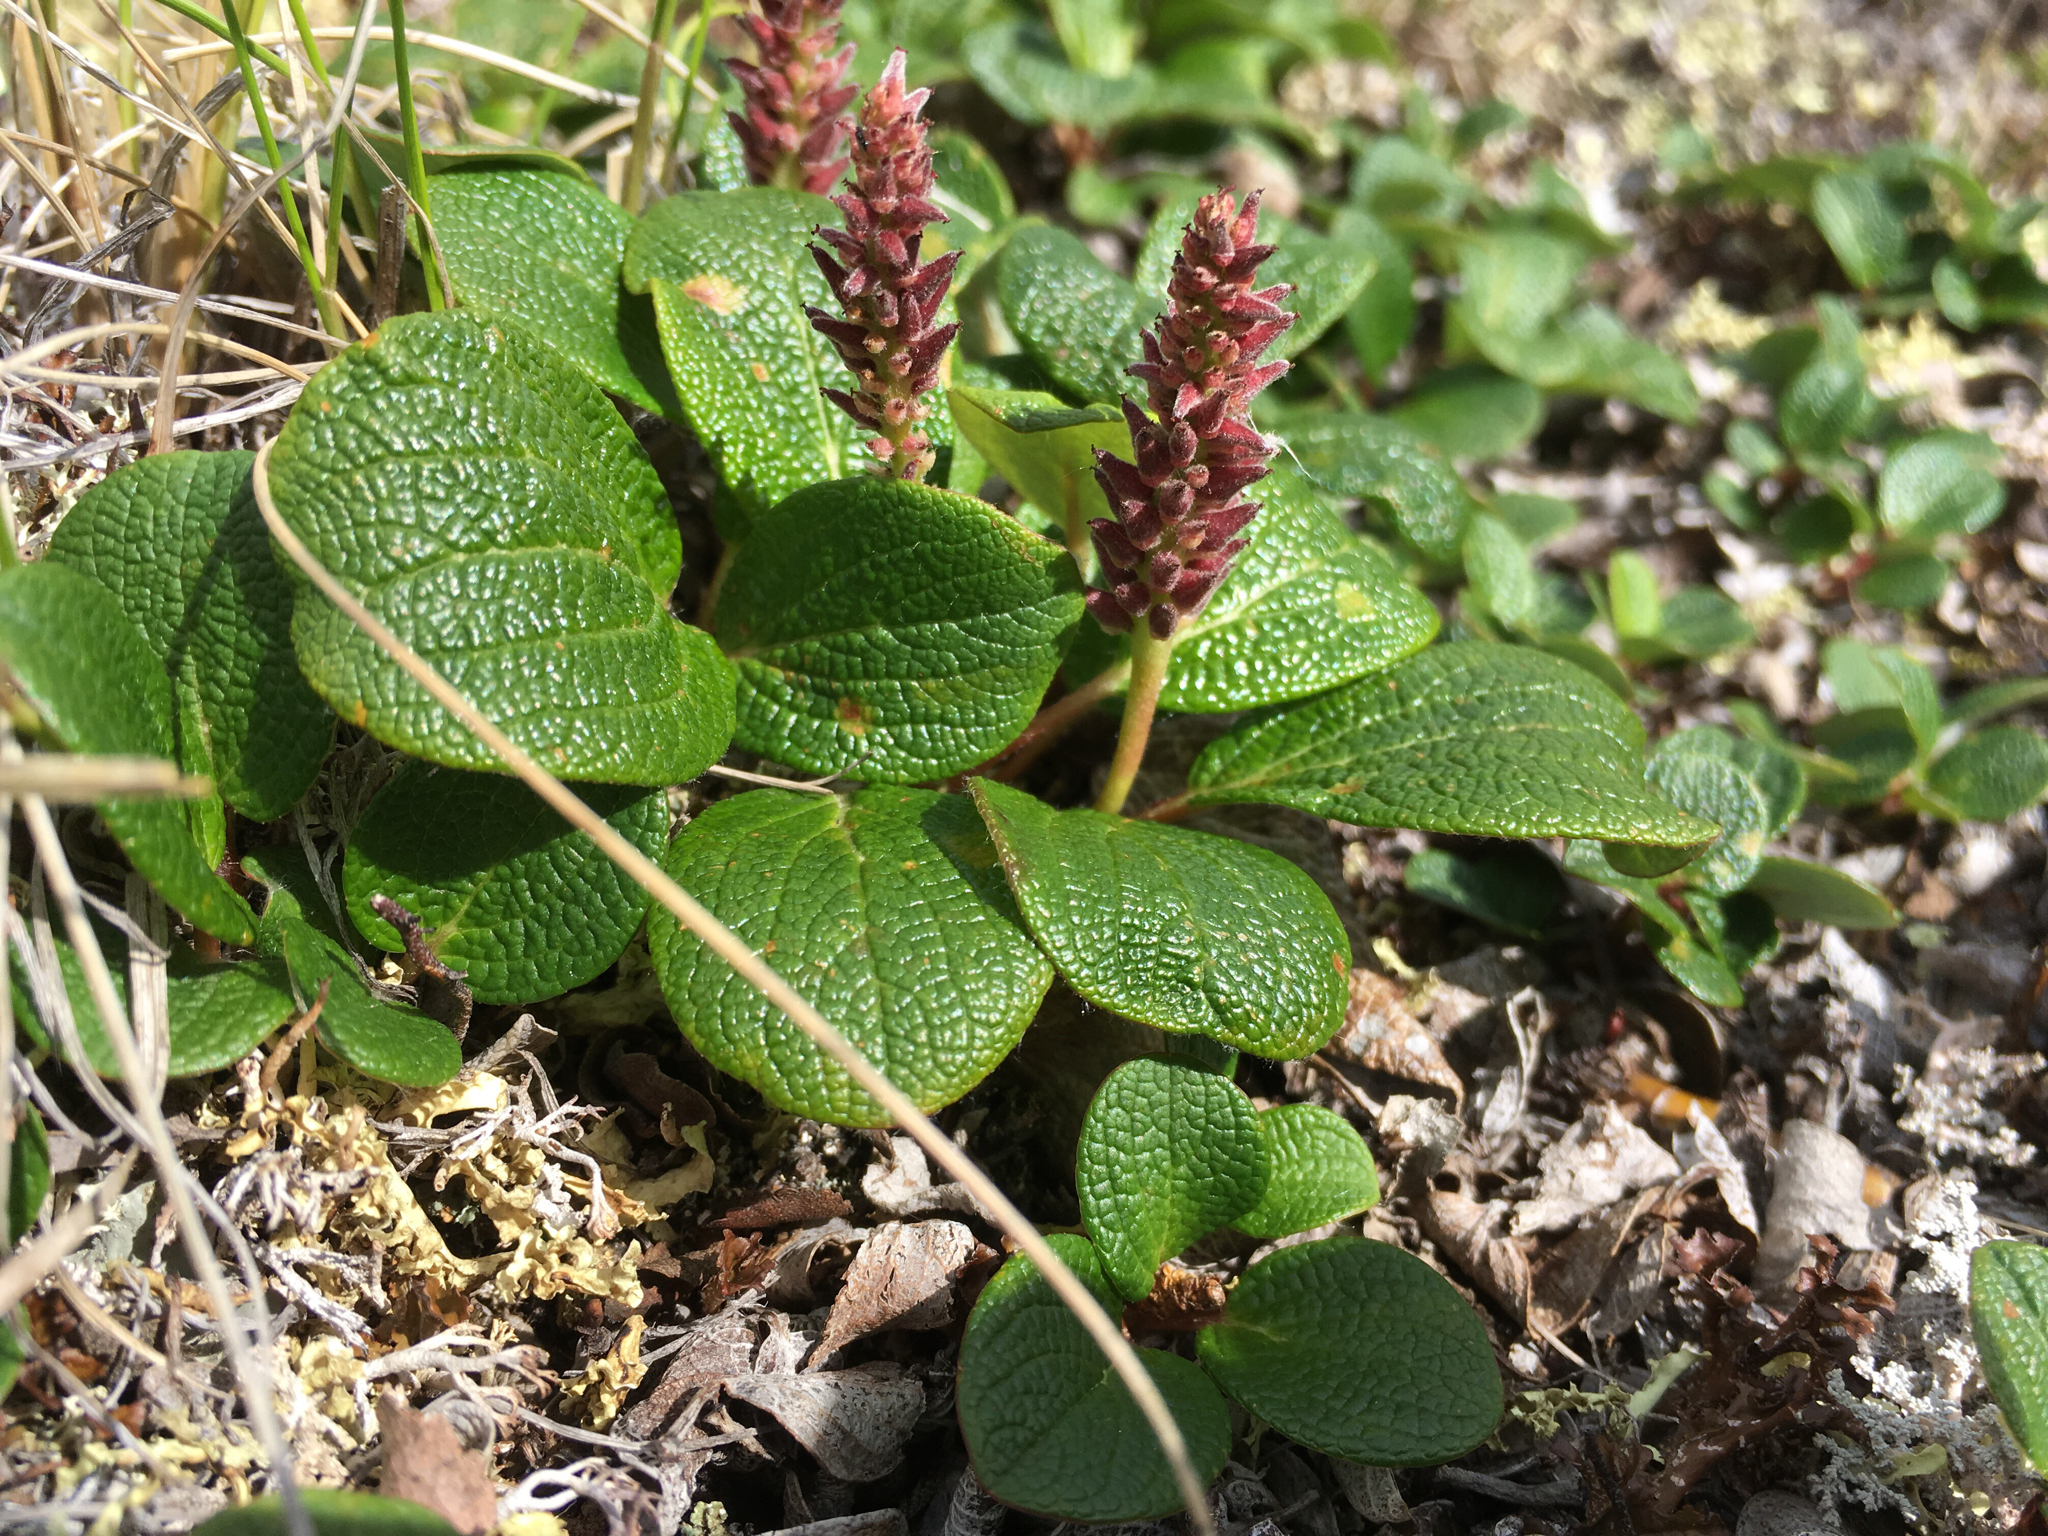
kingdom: Plantae
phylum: Tracheophyta
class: Magnoliopsida
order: Malpighiales
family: Salicaceae
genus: Salix
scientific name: Salix reticulata
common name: Net-leaved willow
